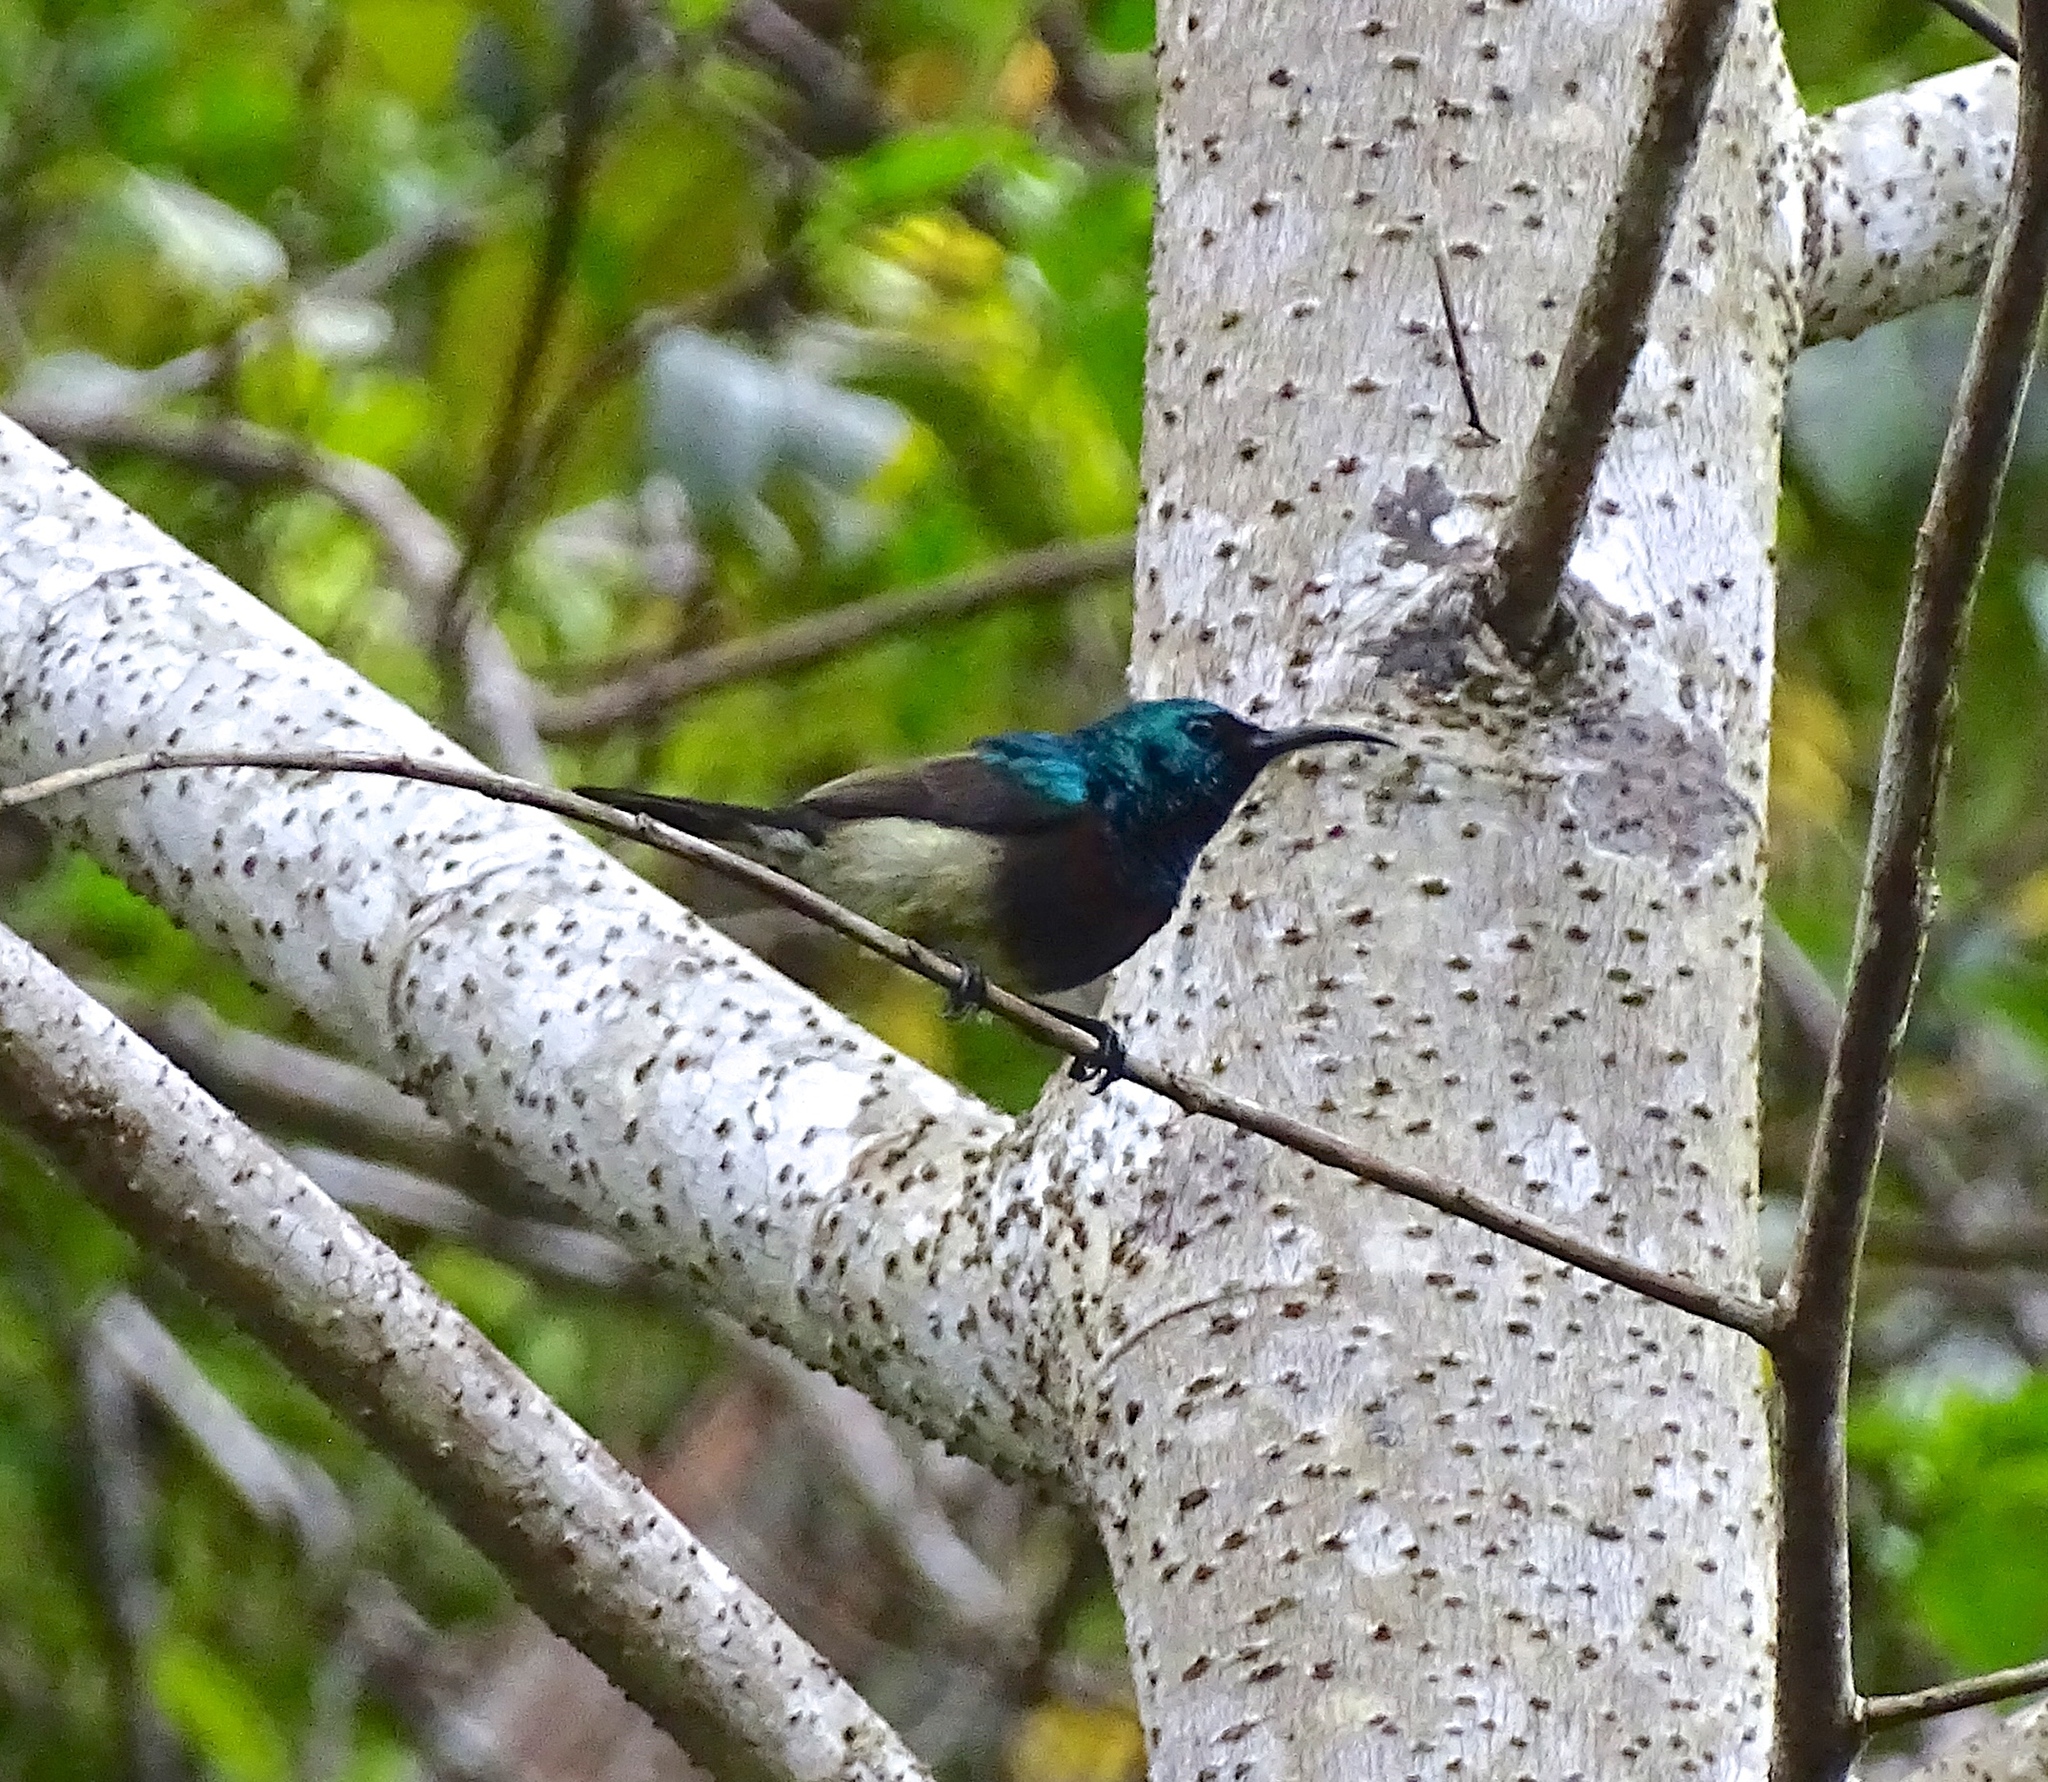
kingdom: Animalia
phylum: Chordata
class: Aves
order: Passeriformes
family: Nectariniidae
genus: Cinnyris
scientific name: Cinnyris sovimanga
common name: Souimanga sunbird
